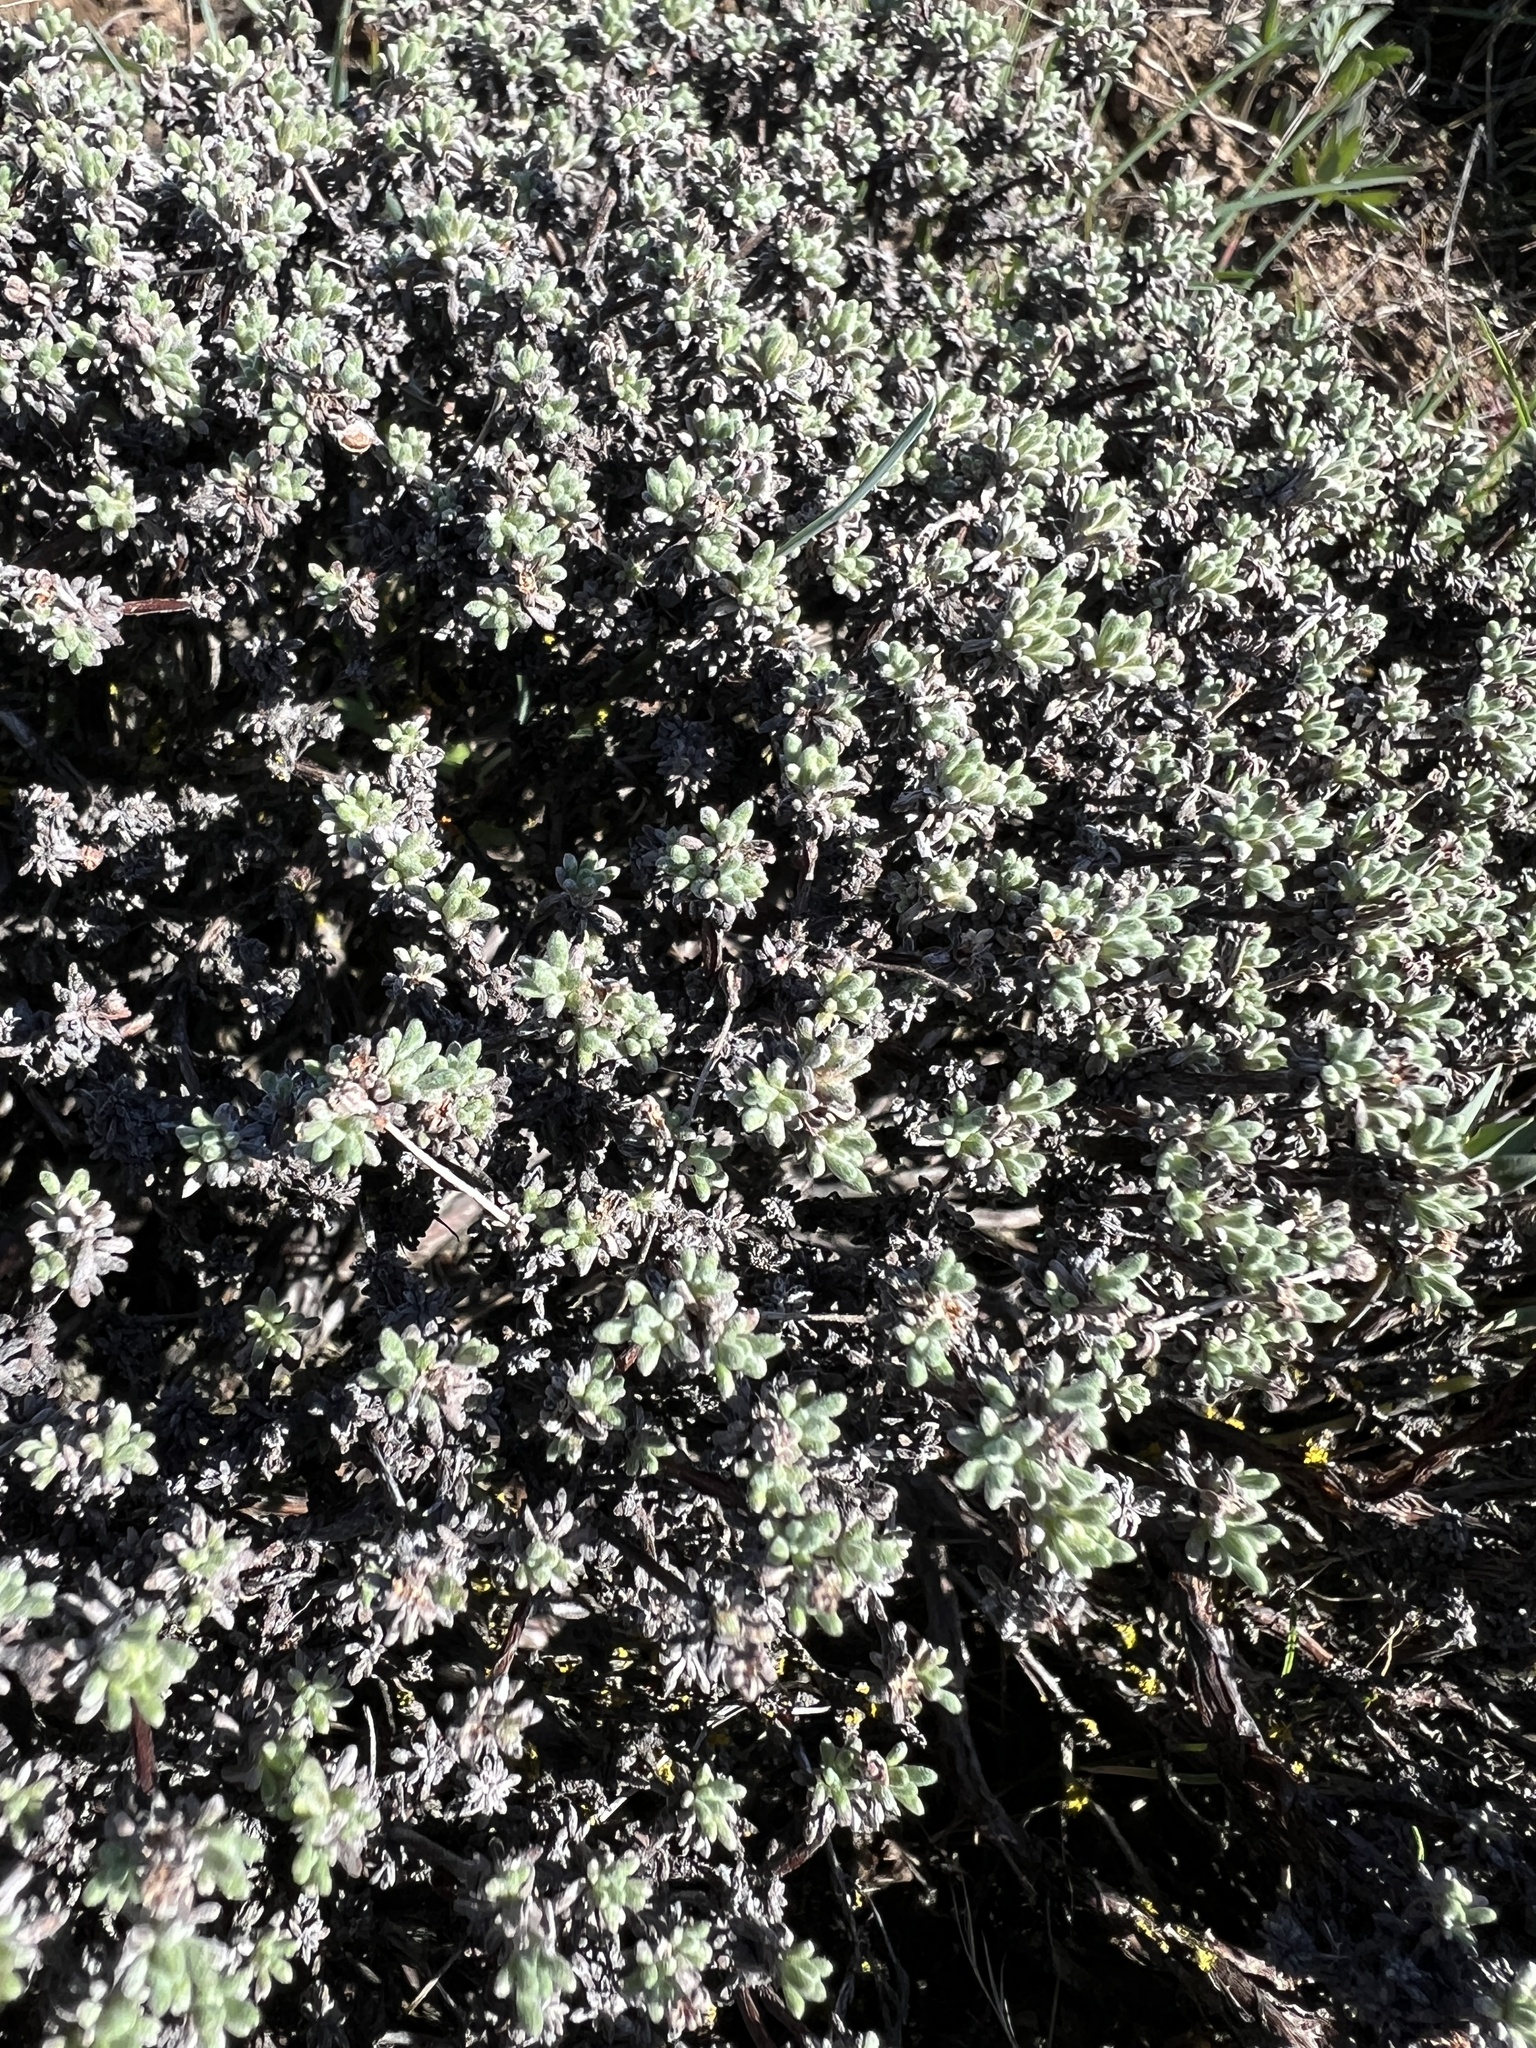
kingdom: Plantae
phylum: Tracheophyta
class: Magnoliopsida
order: Caryophyllales
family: Polygonaceae
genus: Eriogonum
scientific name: Eriogonum thymoides
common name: Thyme-leaf wild buckwheat
